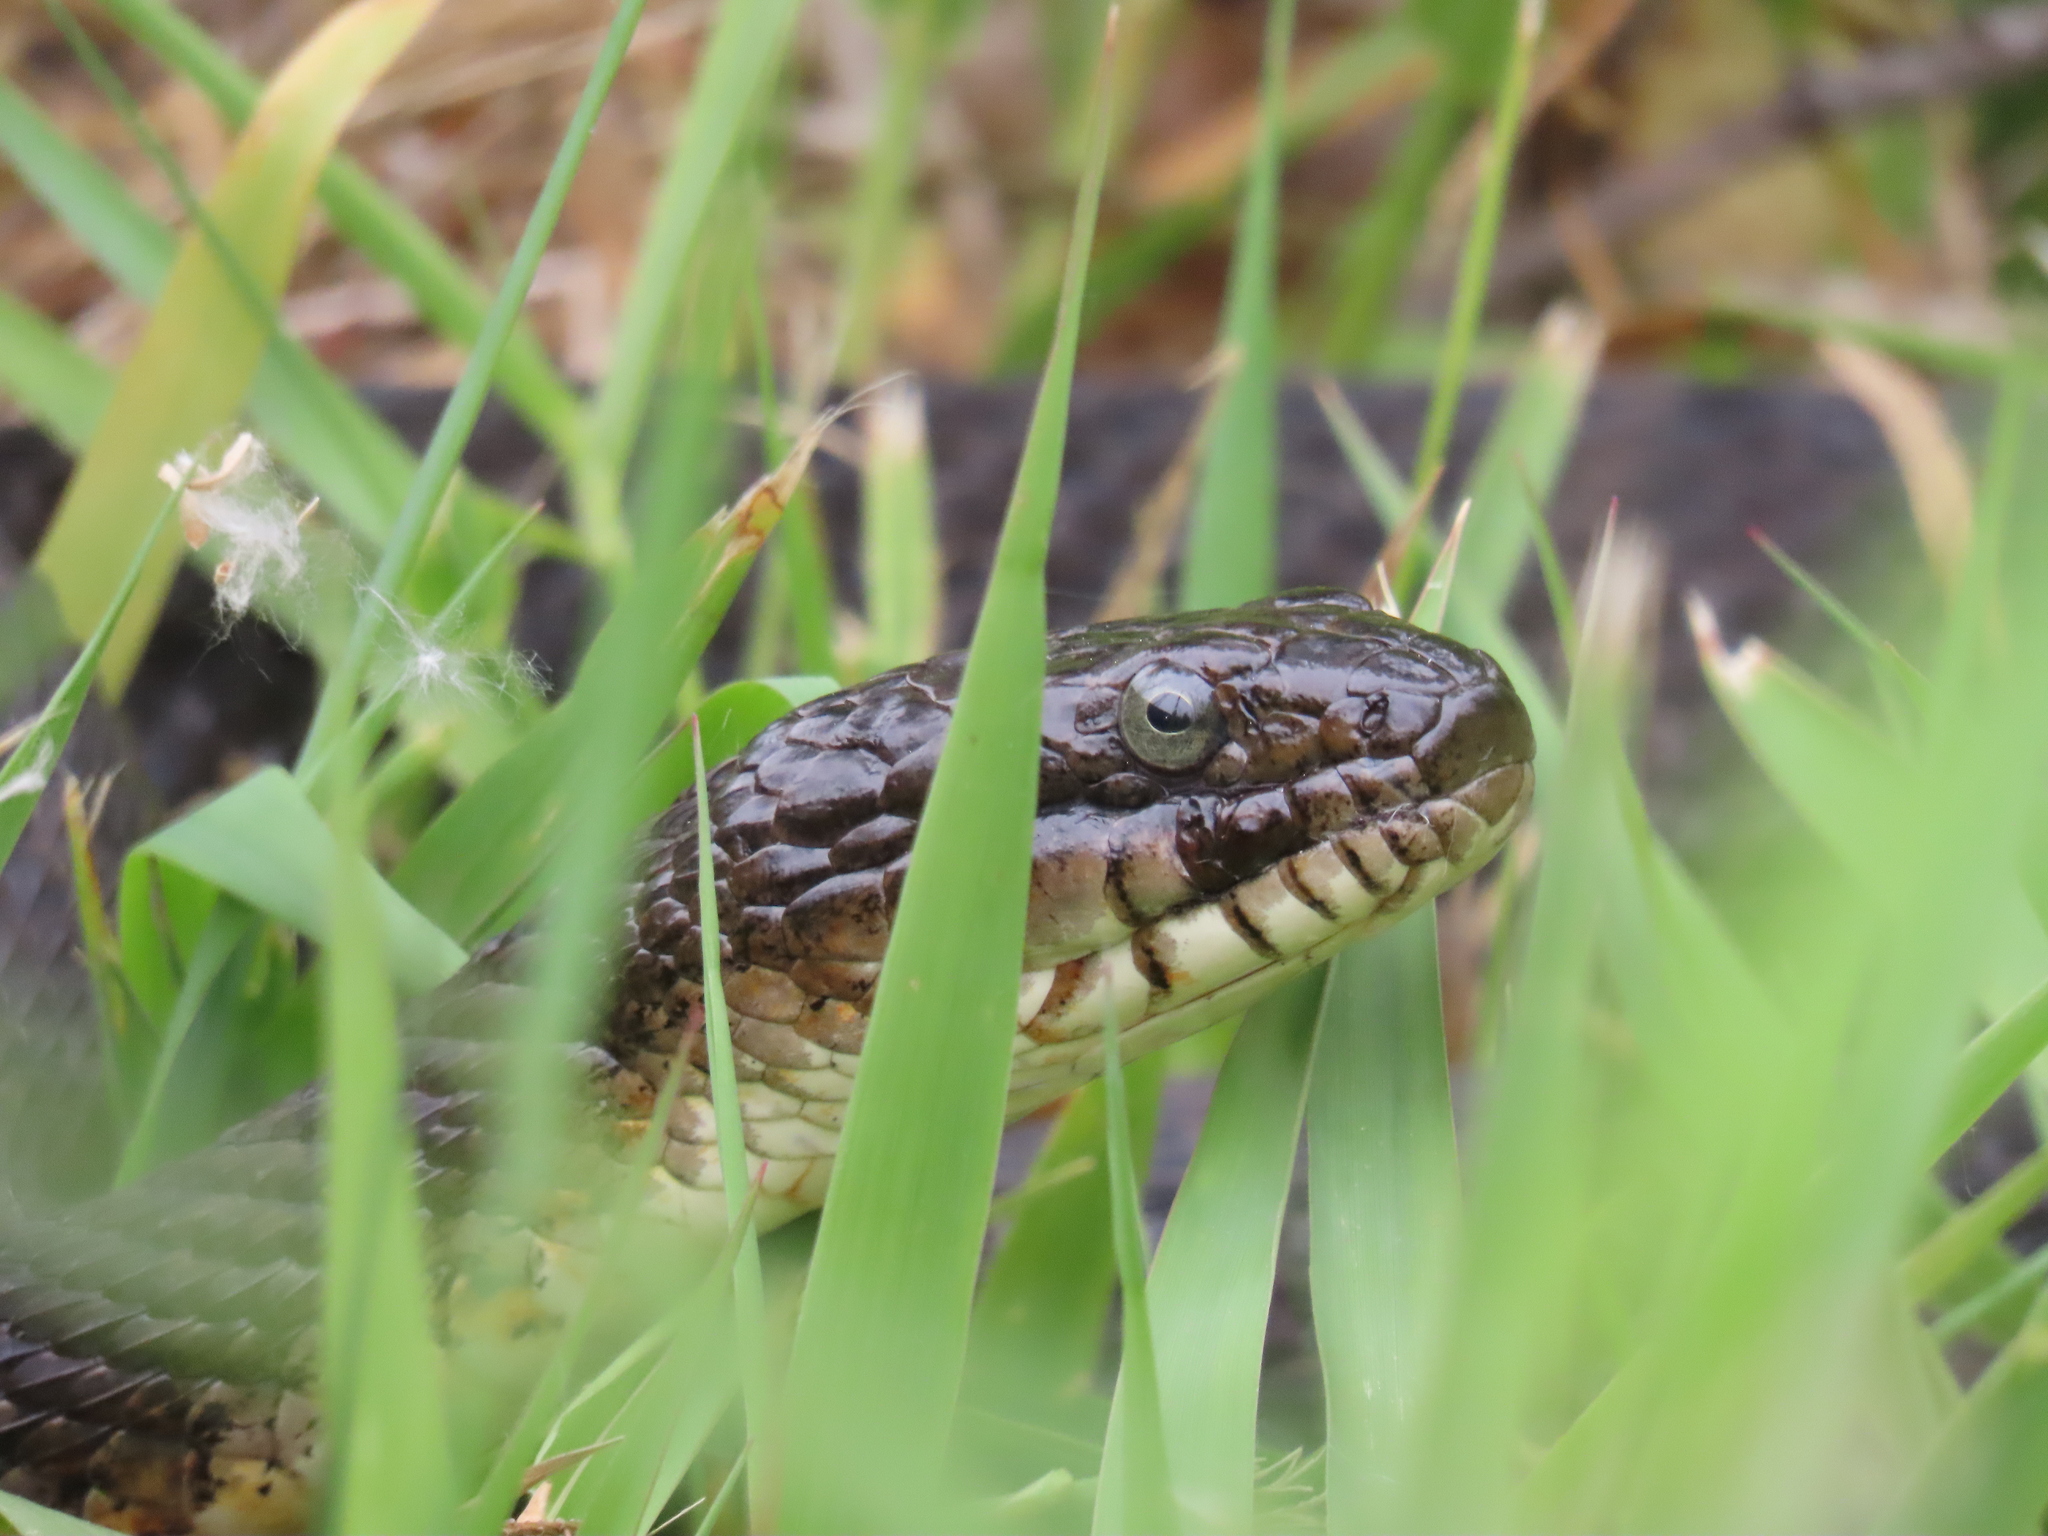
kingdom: Animalia
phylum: Chordata
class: Squamata
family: Colubridae
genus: Nerodia
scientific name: Nerodia sipedon
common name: Northern water snake
